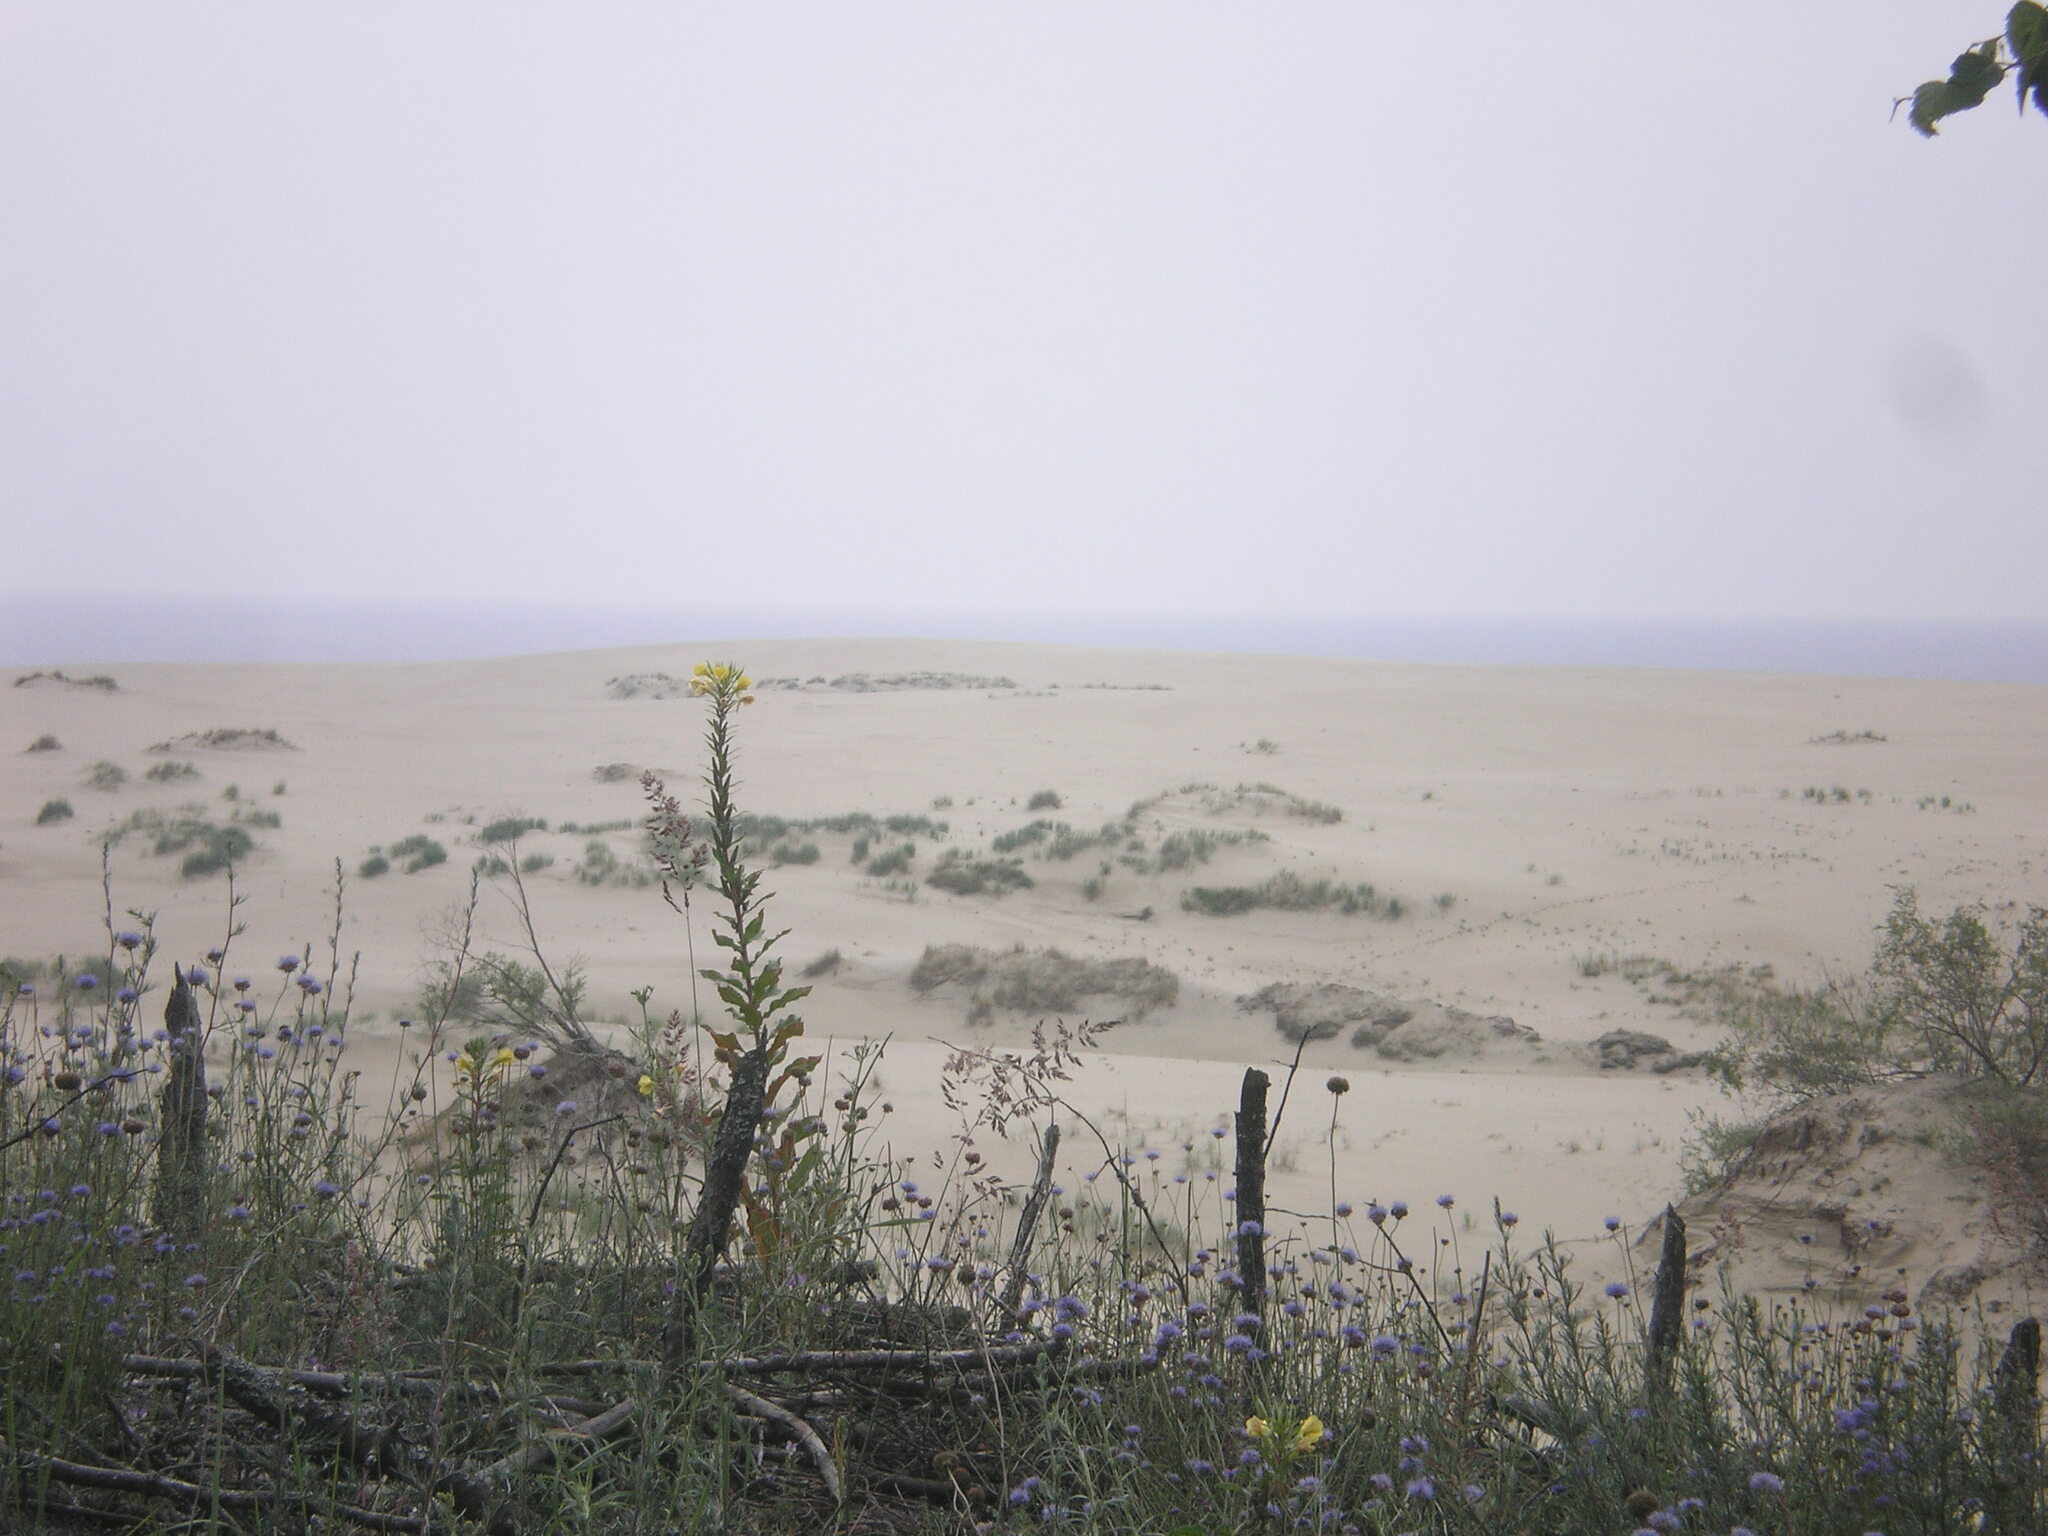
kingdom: Plantae
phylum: Tracheophyta
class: Magnoliopsida
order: Myrtales
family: Onagraceae
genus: Oenothera
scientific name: Oenothera biennis
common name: Common evening-primrose
